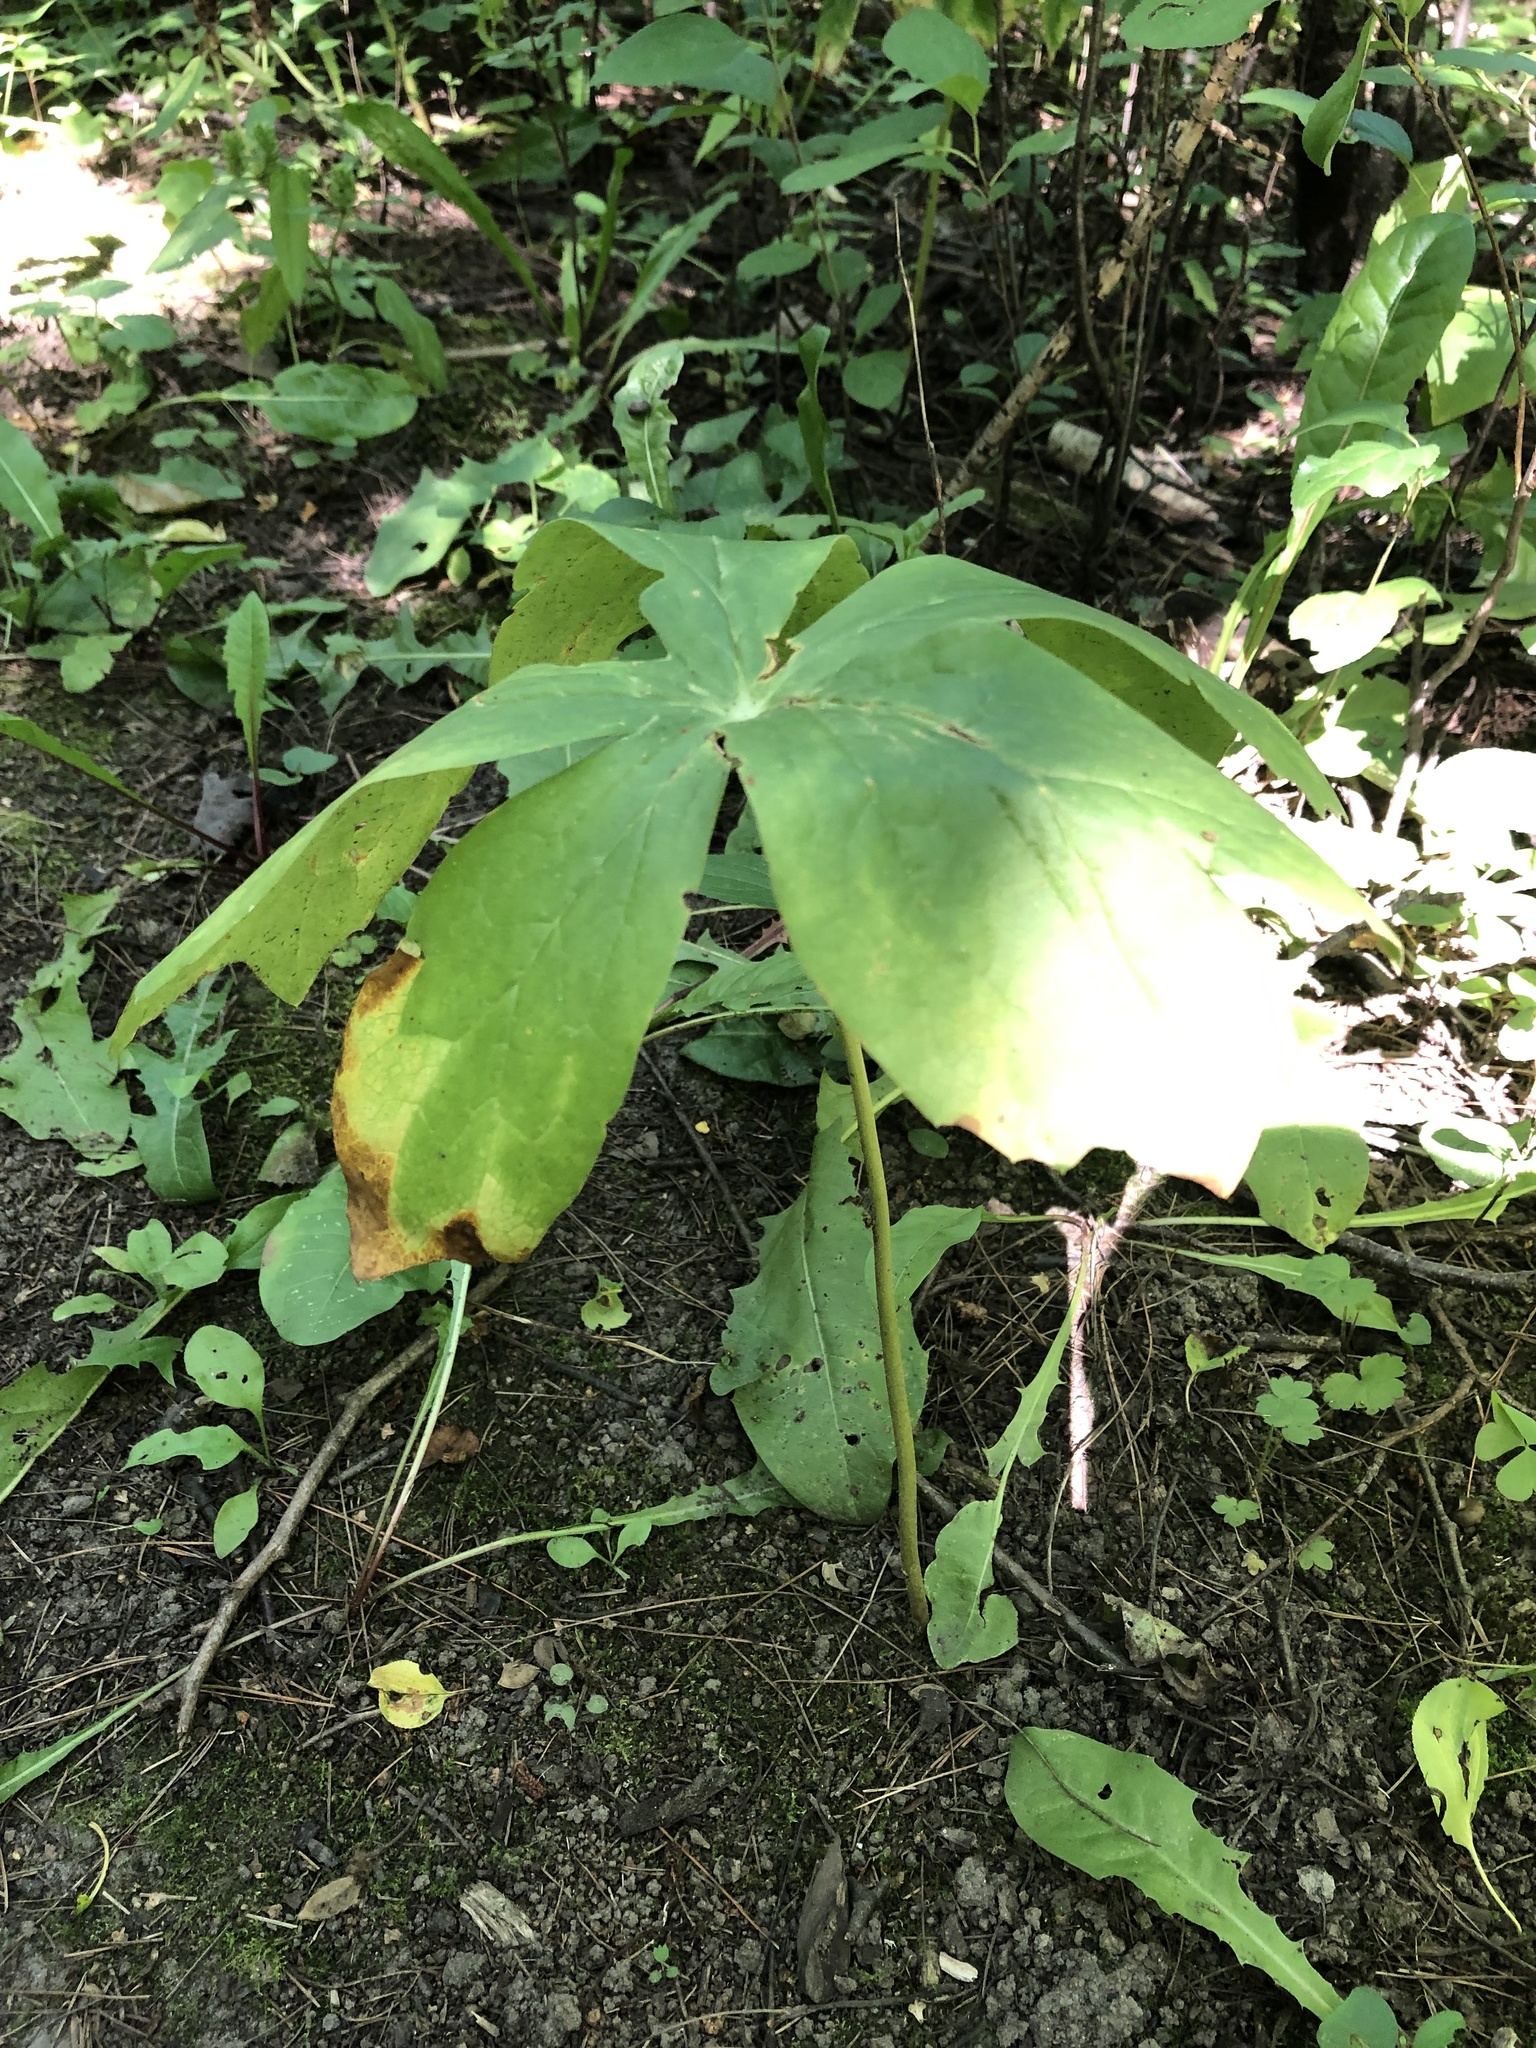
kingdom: Plantae
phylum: Tracheophyta
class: Magnoliopsida
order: Ranunculales
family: Berberidaceae
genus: Podophyllum
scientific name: Podophyllum peltatum
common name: Wild mandrake
